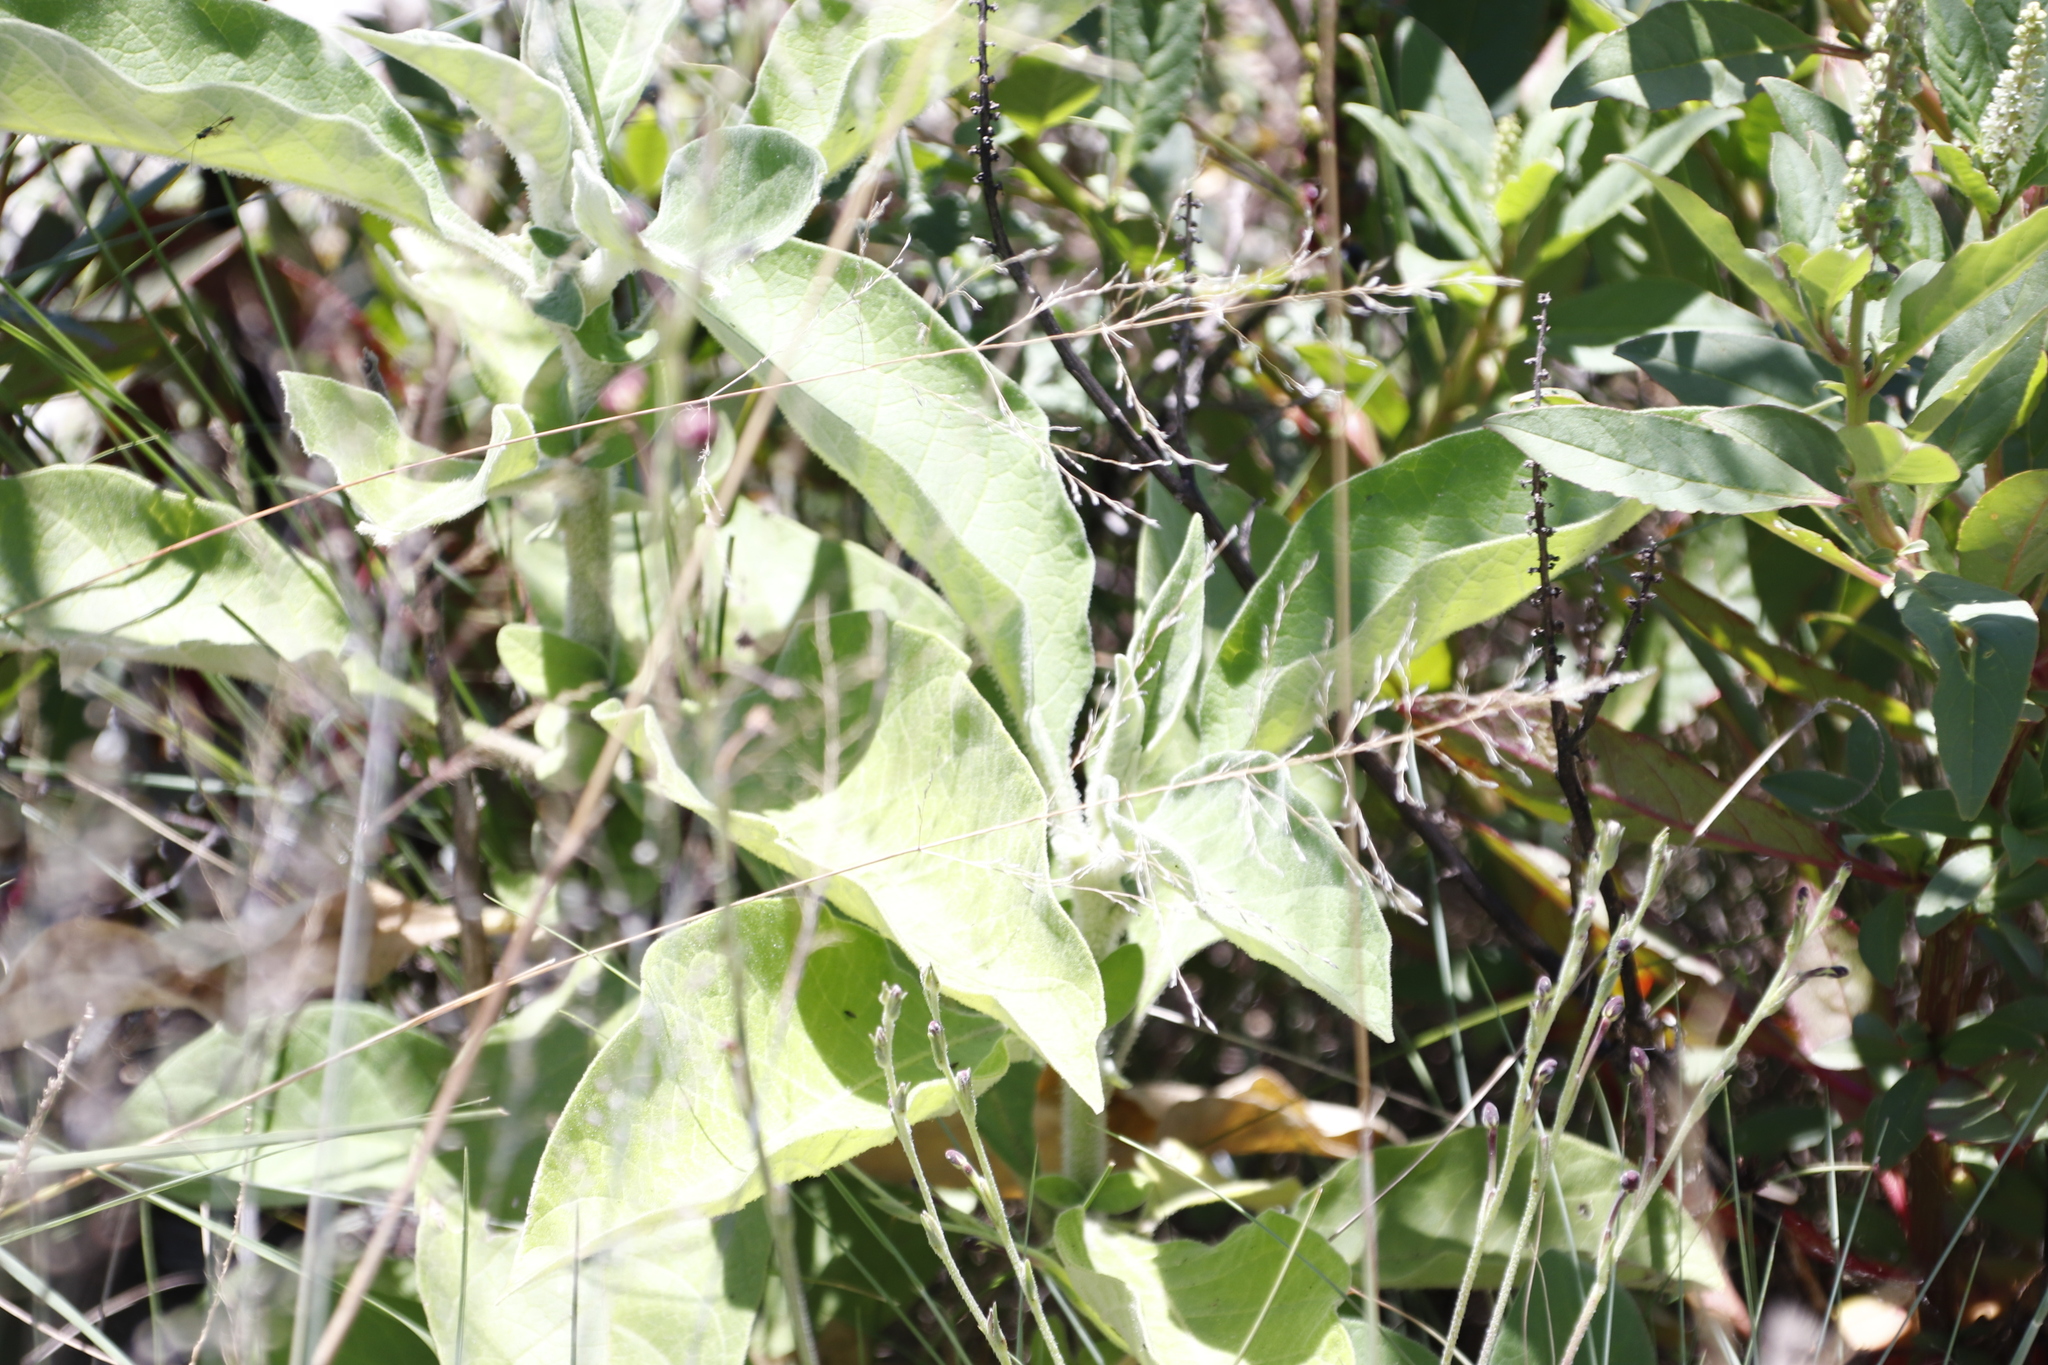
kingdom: Plantae
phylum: Tracheophyta
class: Magnoliopsida
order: Solanales
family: Solanaceae
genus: Solanum
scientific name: Solanum mauritianum
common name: Earleaf nightshade
